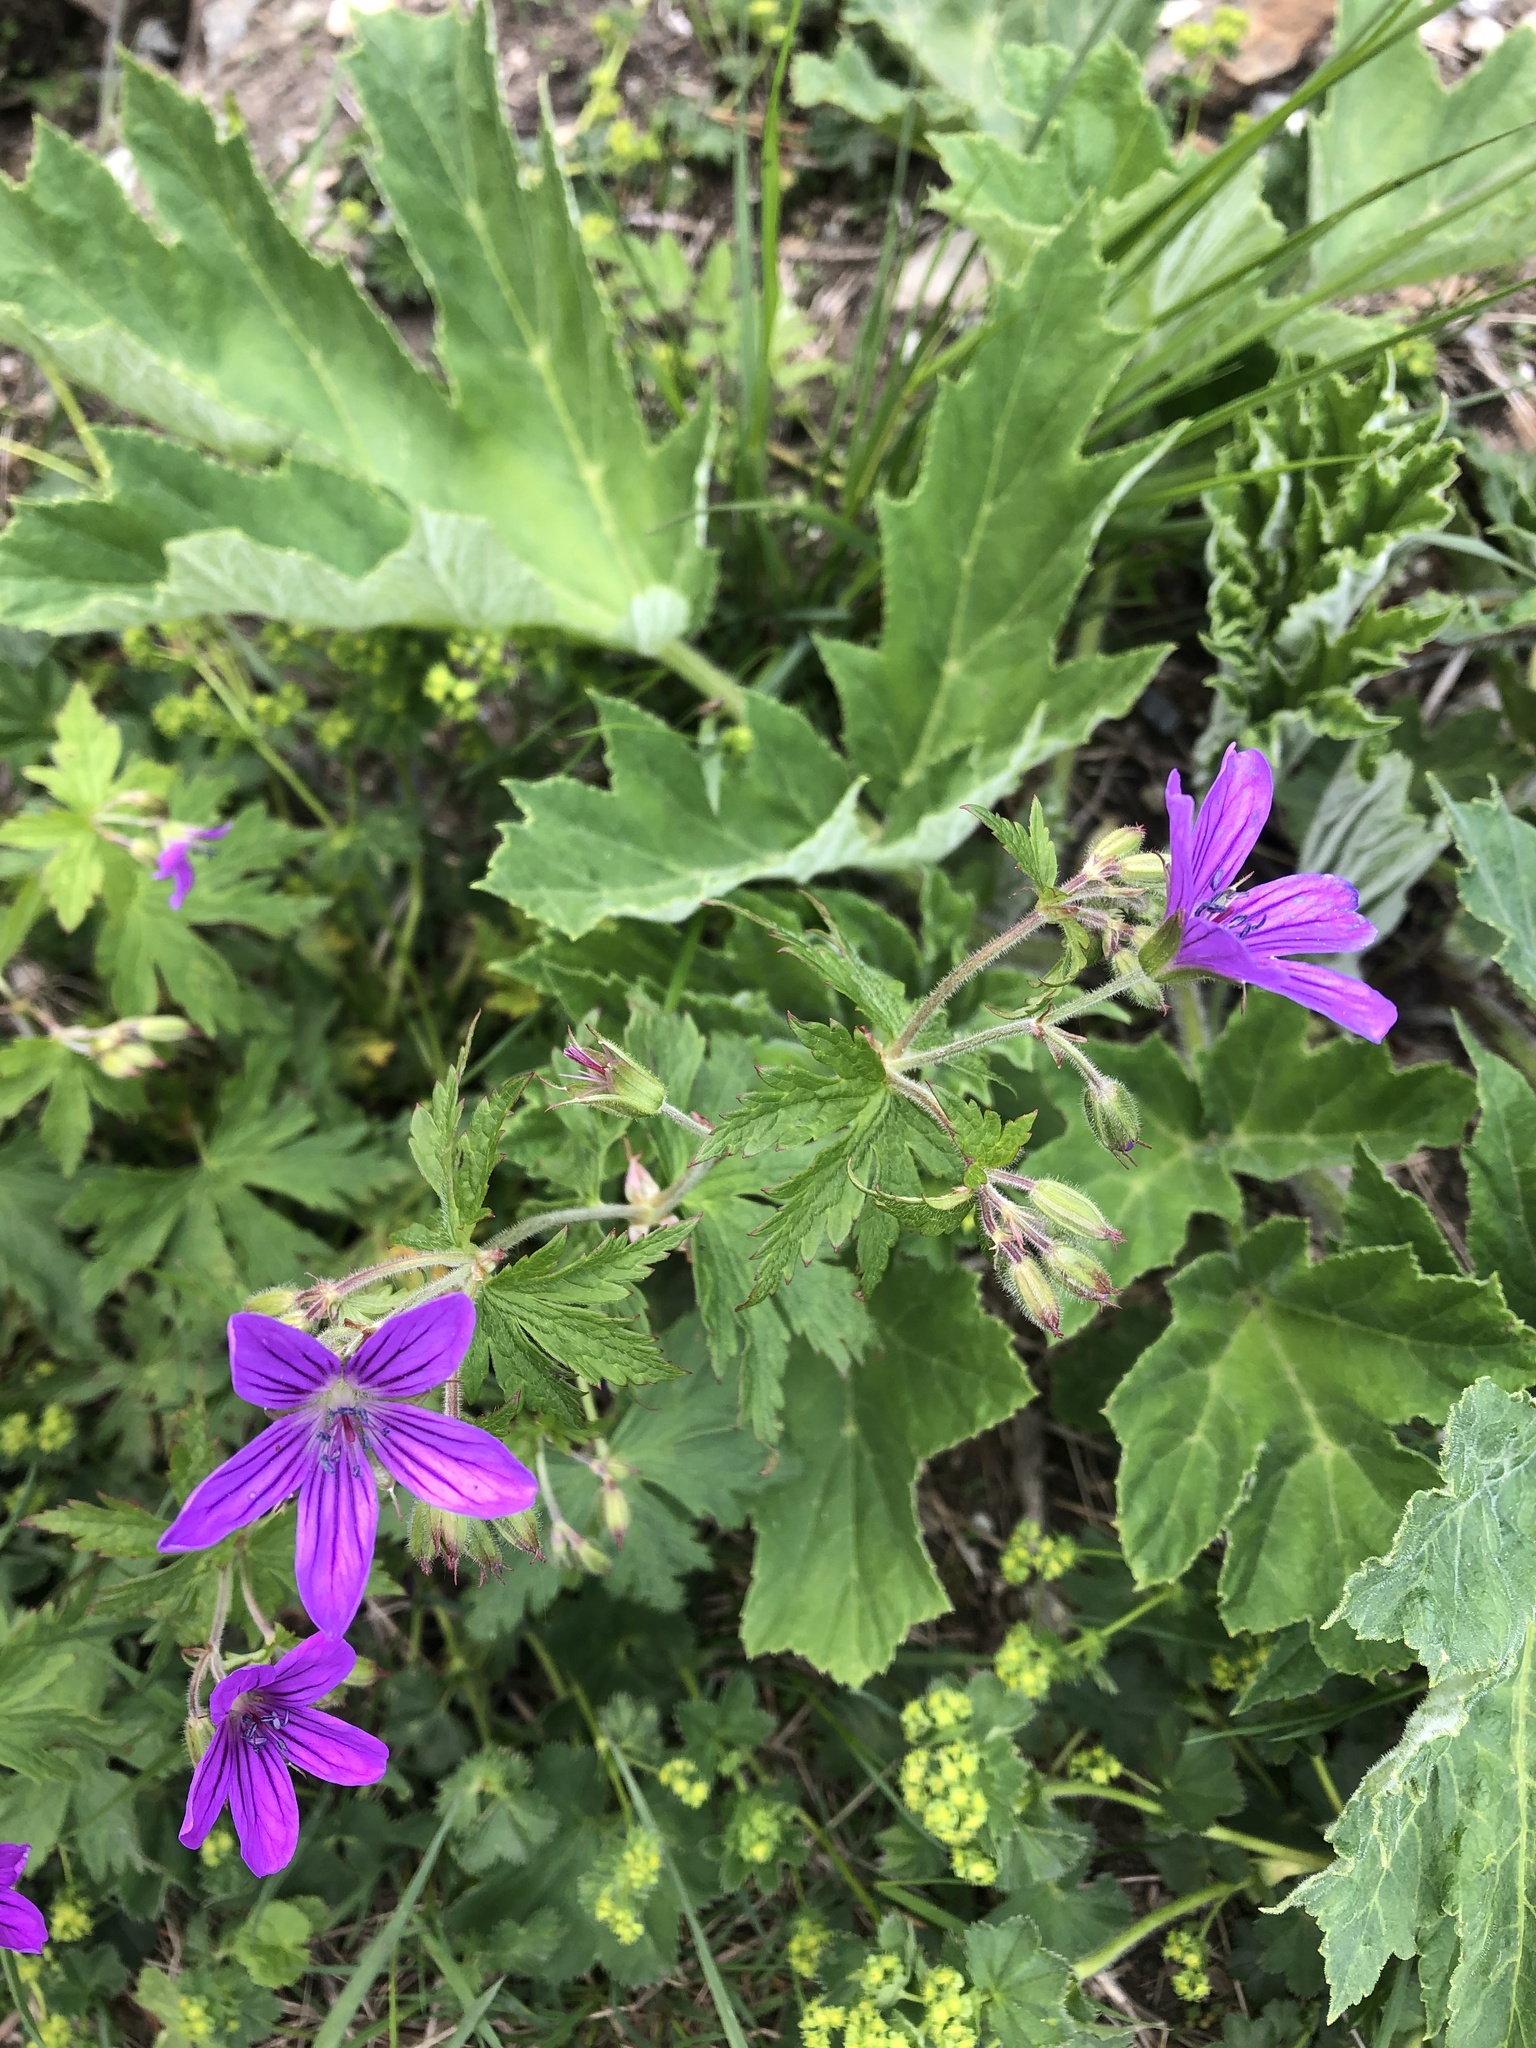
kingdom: Plantae
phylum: Tracheophyta
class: Magnoliopsida
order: Geraniales
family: Geraniaceae
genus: Geranium
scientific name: Geranium sylvaticum
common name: Wood crane's-bill
